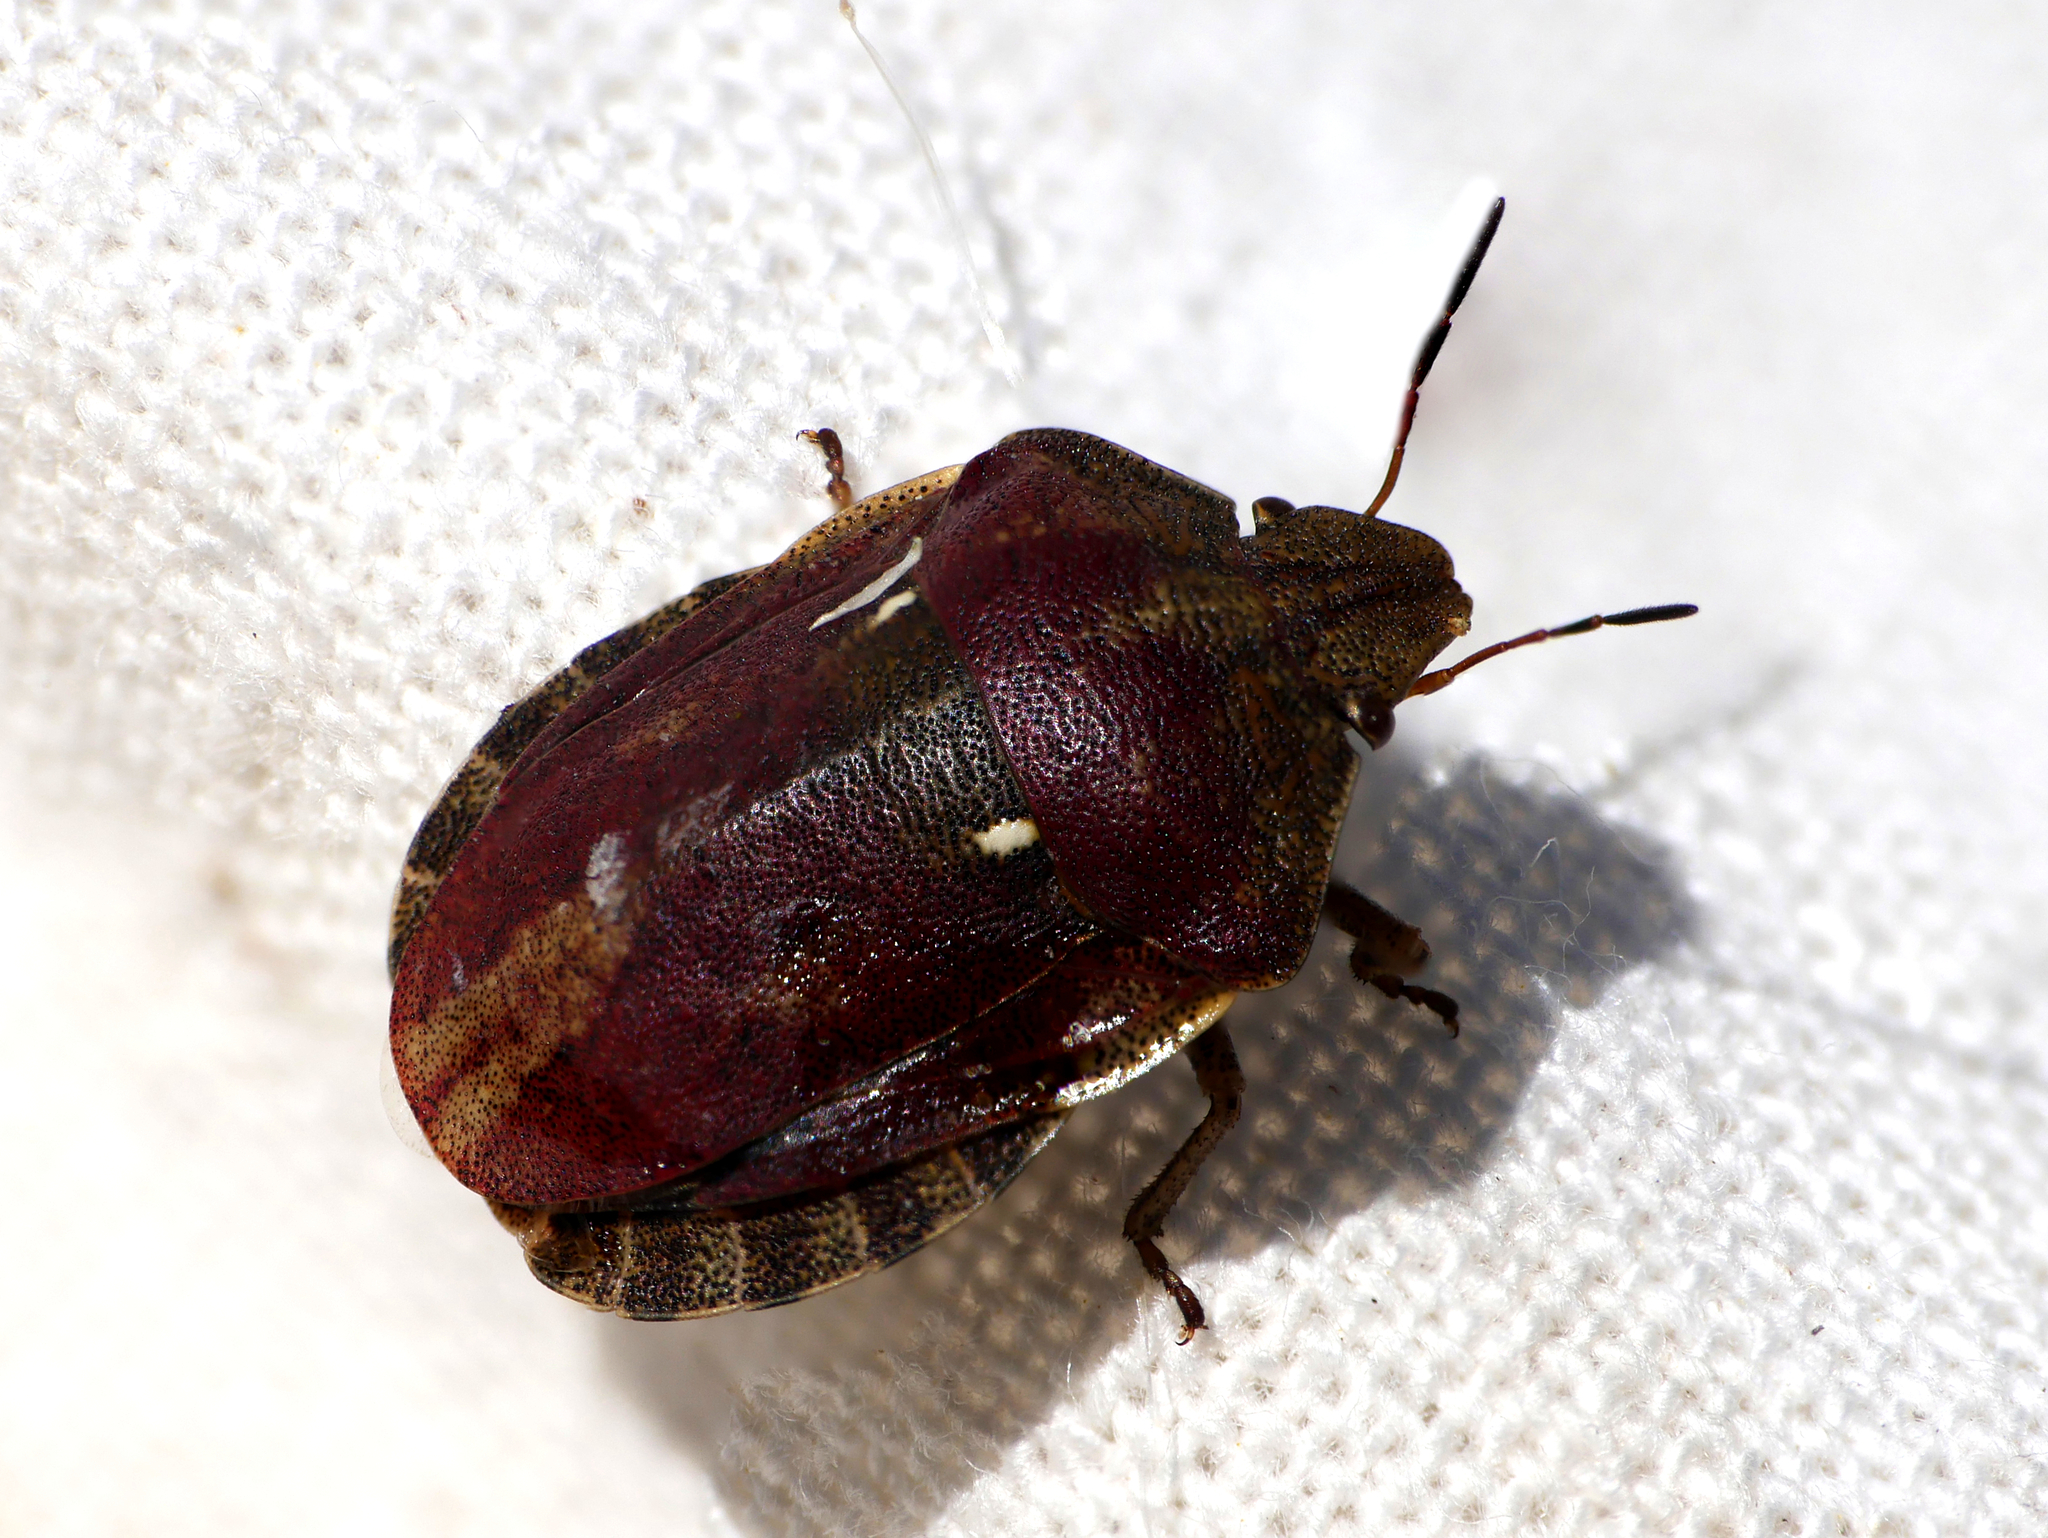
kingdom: Animalia
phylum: Arthropoda
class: Insecta
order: Hemiptera
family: Scutelleridae
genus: Eurygaster
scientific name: Eurygaster testudinaria
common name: Tortoise bug
